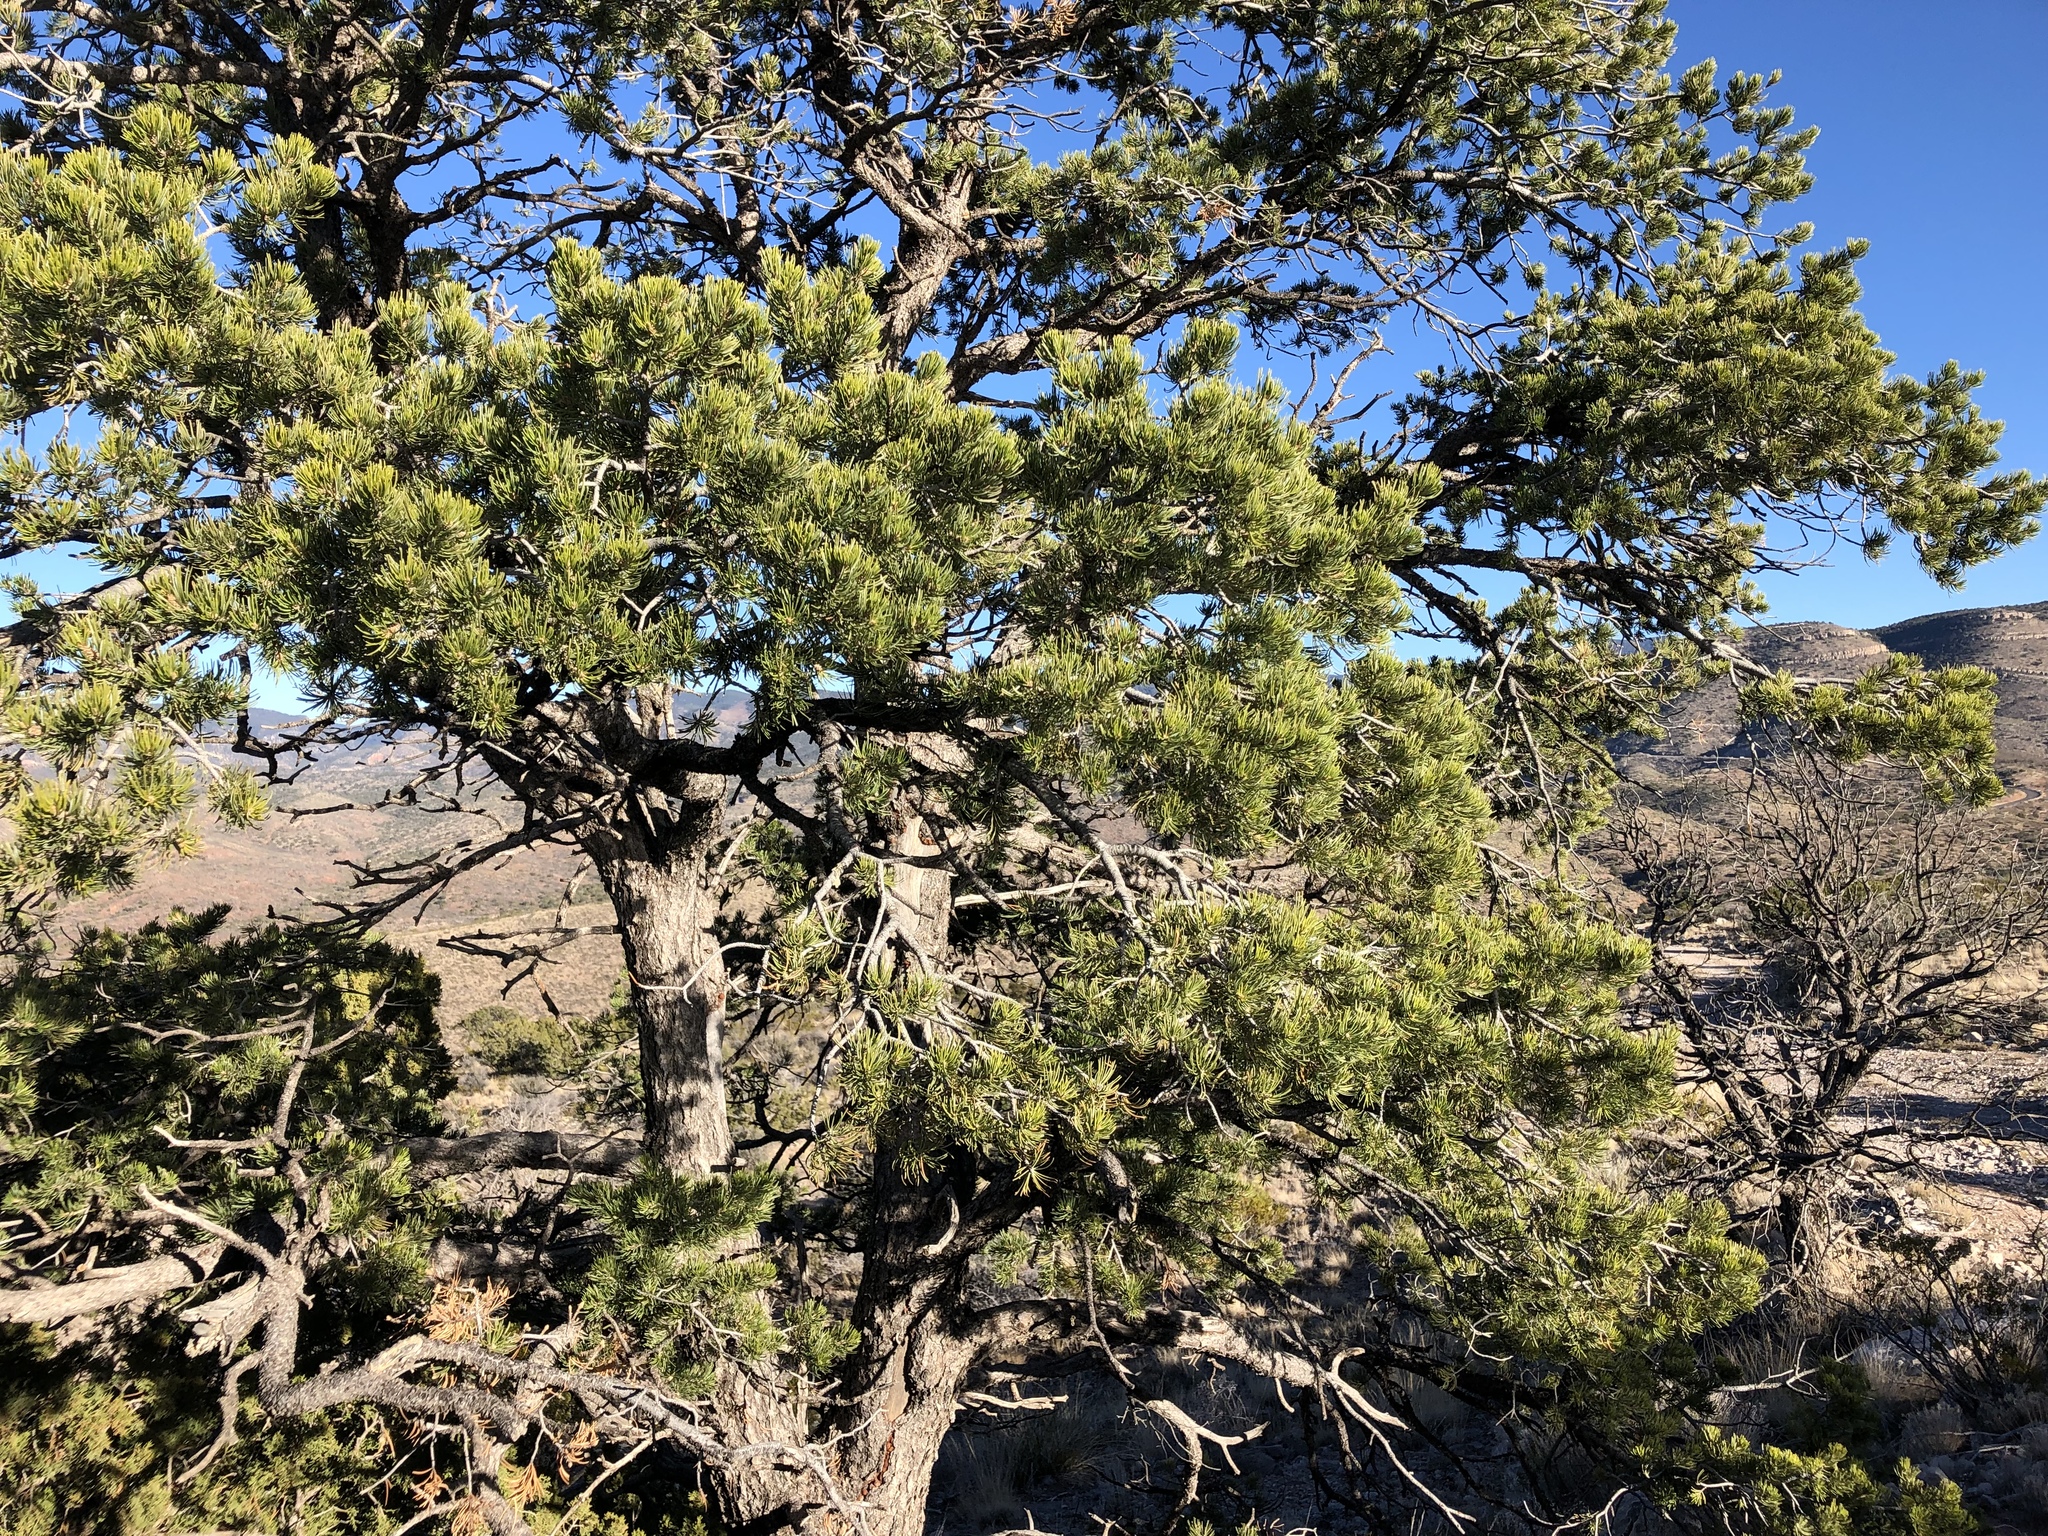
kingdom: Plantae
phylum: Tracheophyta
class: Pinopsida
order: Pinales
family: Pinaceae
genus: Pinus
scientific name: Pinus edulis
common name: Colorado pinyon
